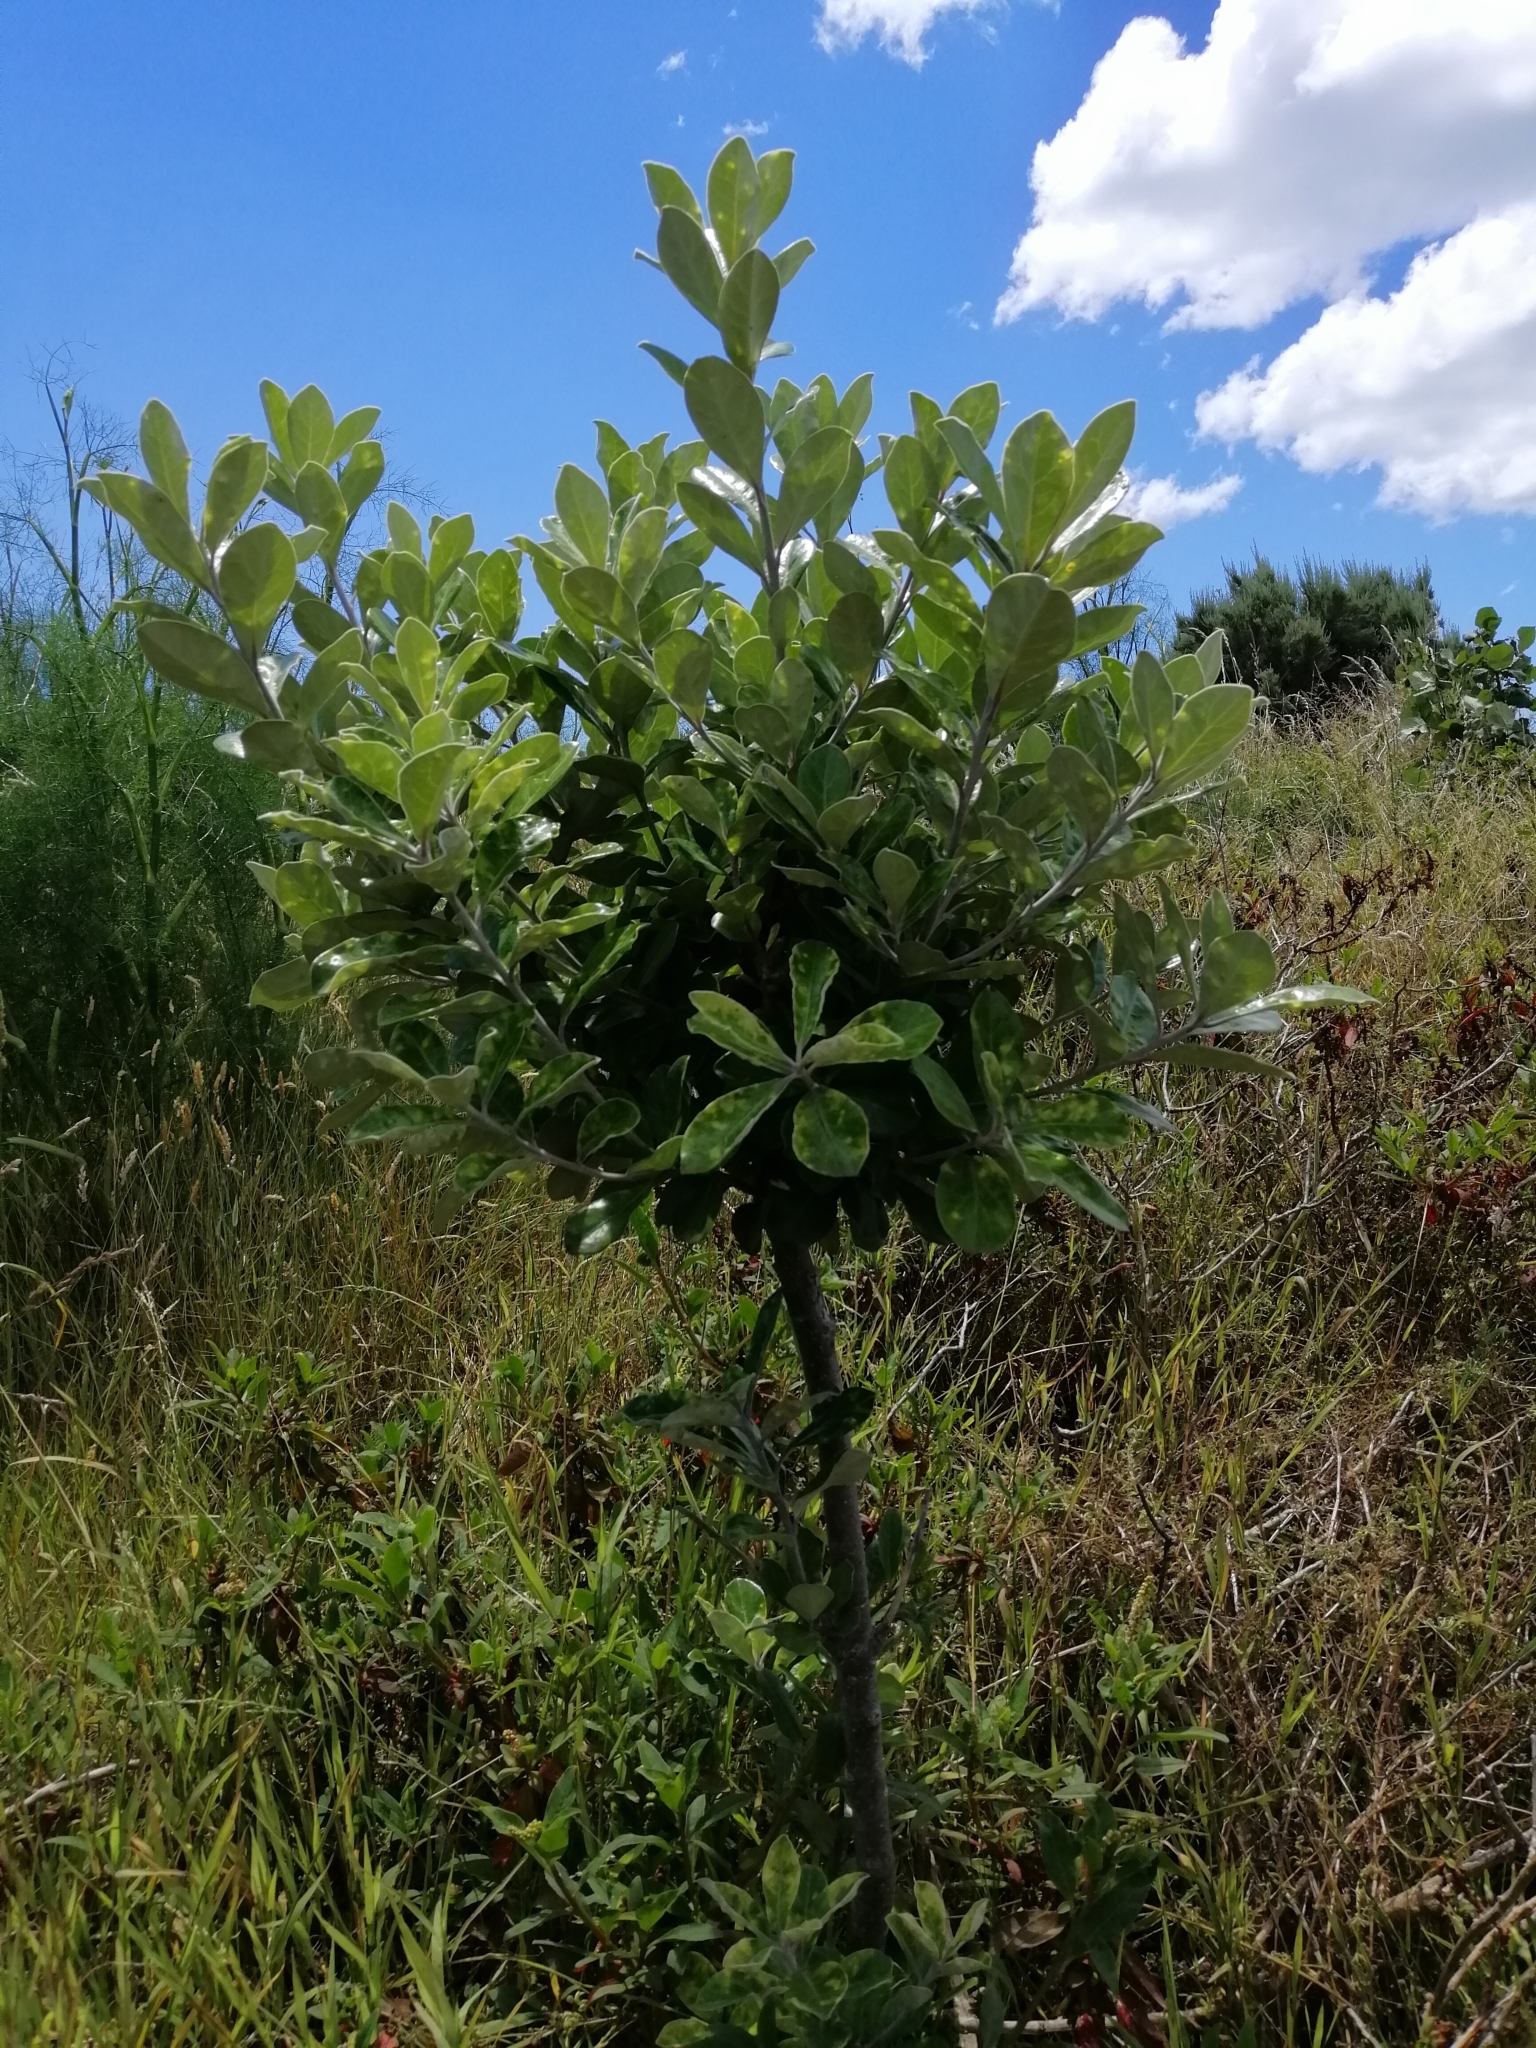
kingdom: Plantae
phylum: Tracheophyta
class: Magnoliopsida
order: Apiales
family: Pittosporaceae
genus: Pittosporum
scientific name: Pittosporum crassifolium
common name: Karo
